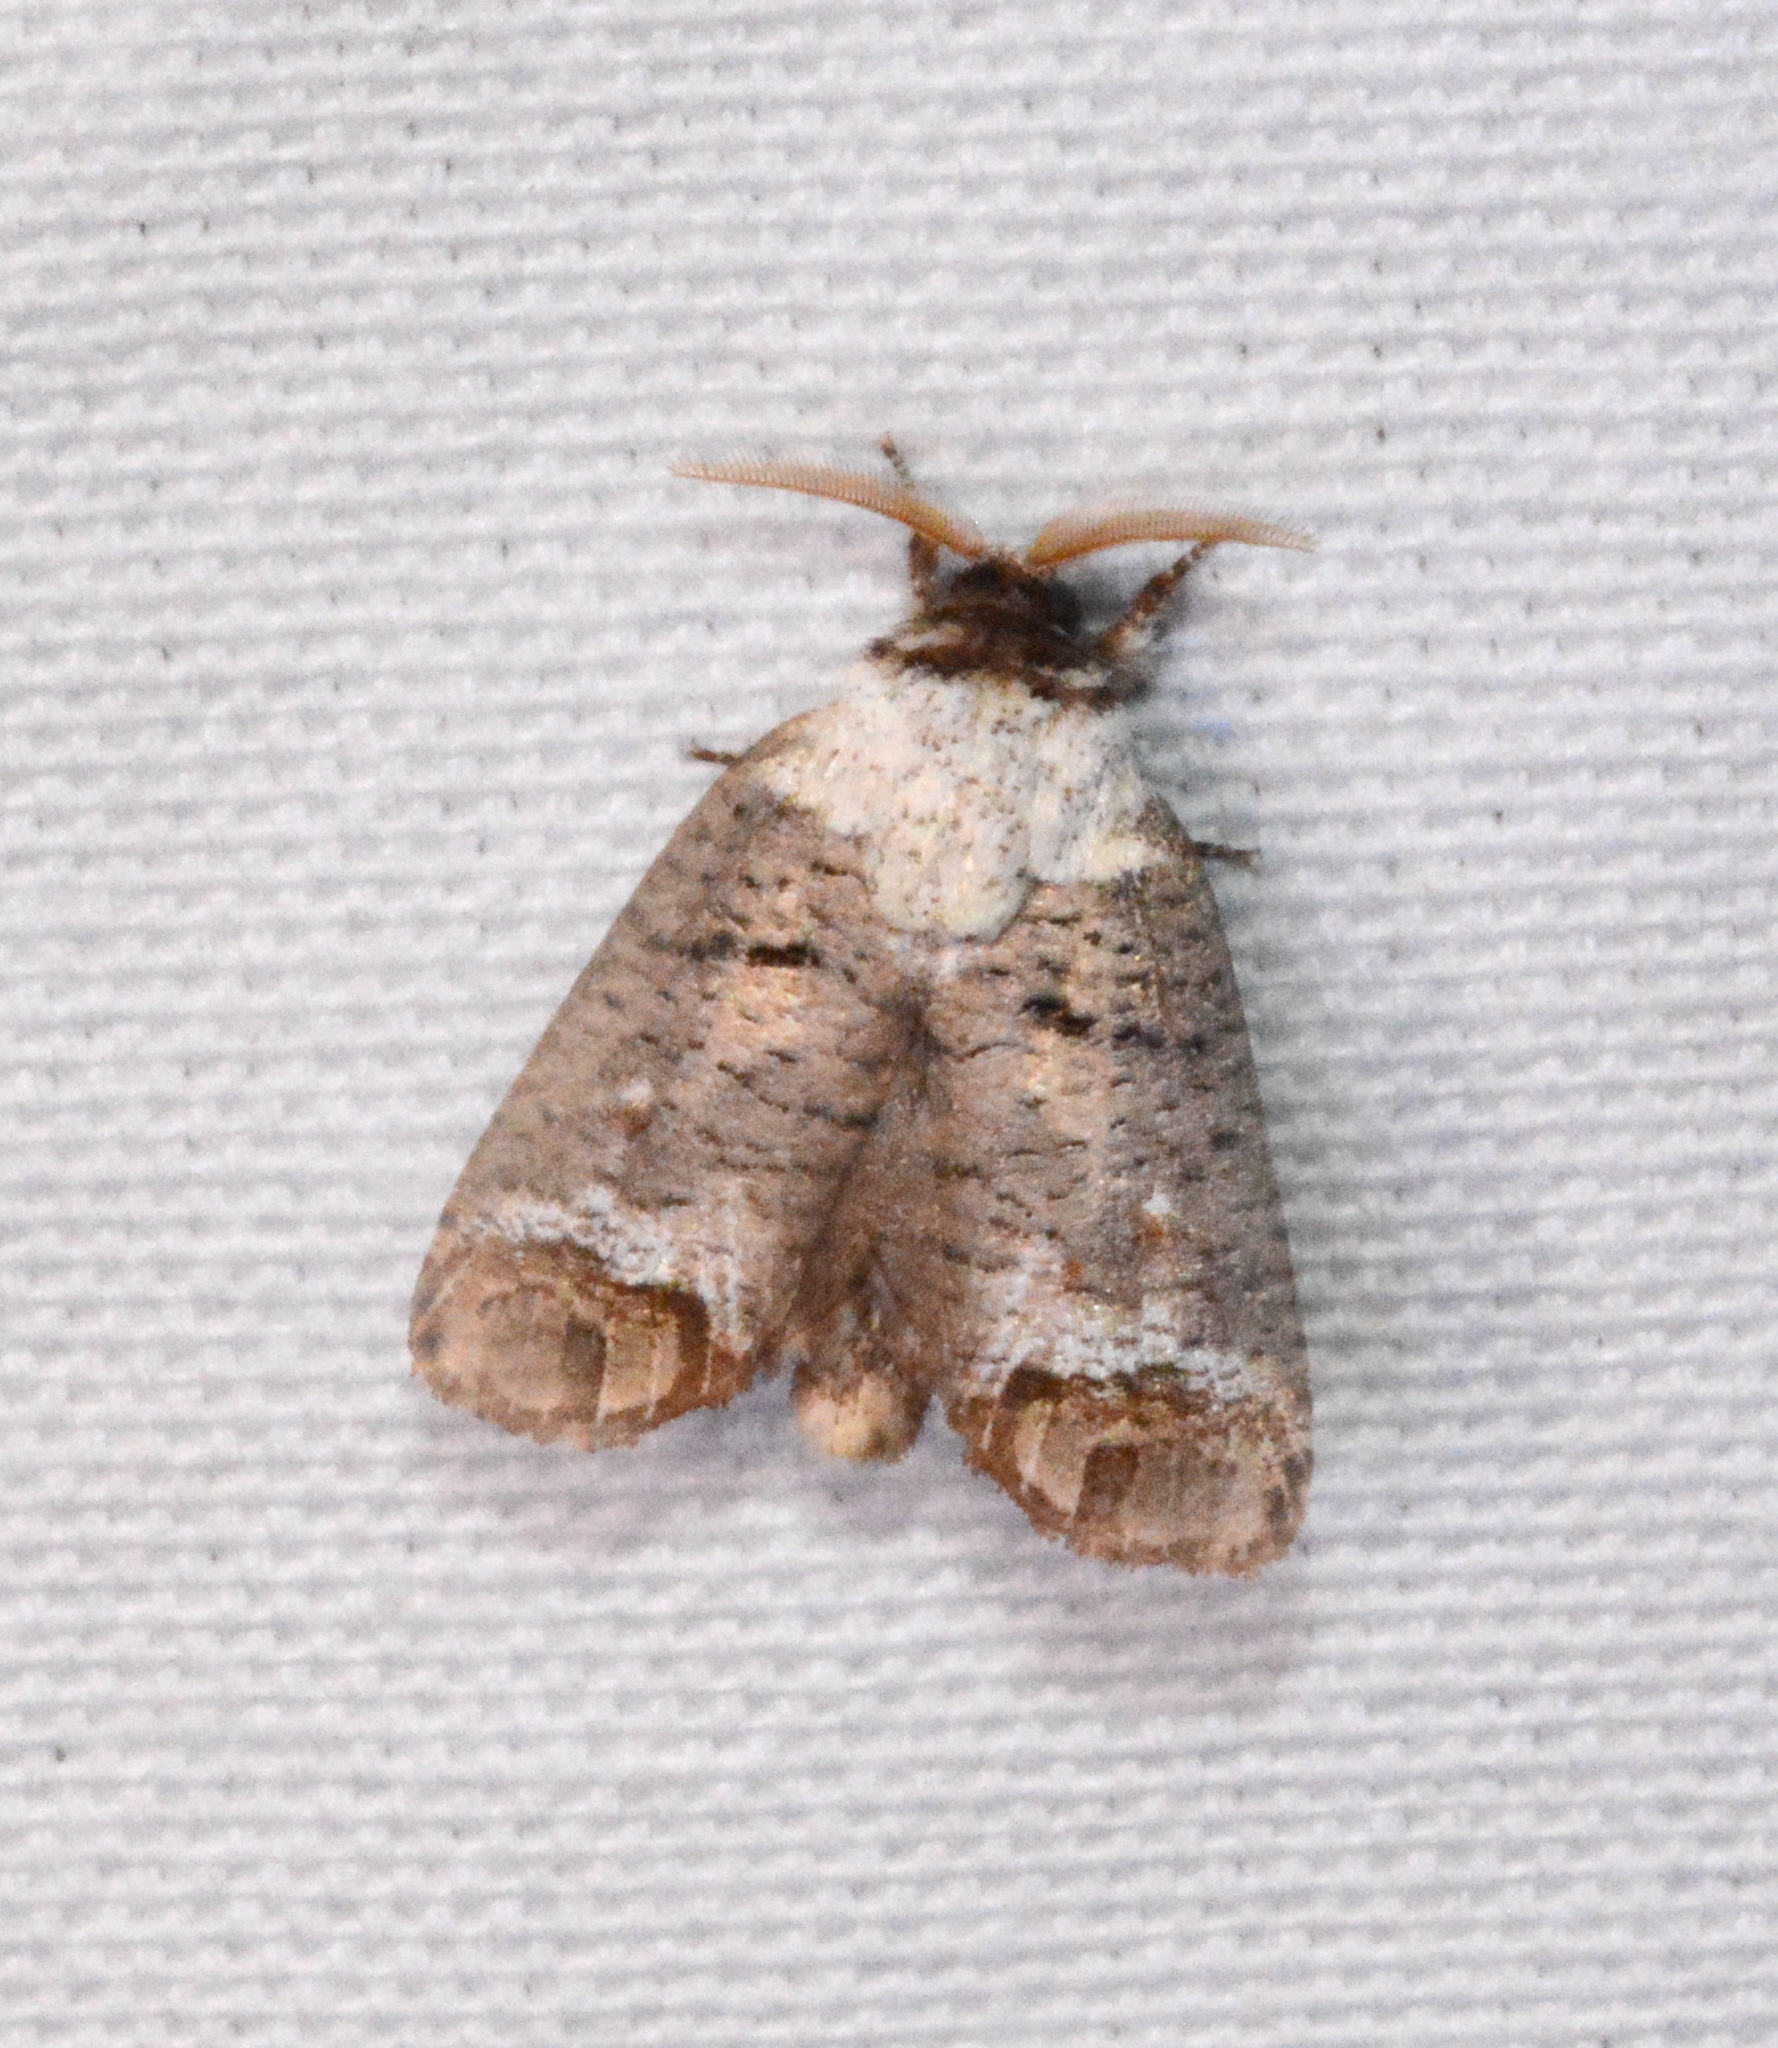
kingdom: Animalia
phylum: Arthropoda
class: Insecta
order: Lepidoptera
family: Cossidae
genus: Cossula
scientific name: Cossula magnifica
